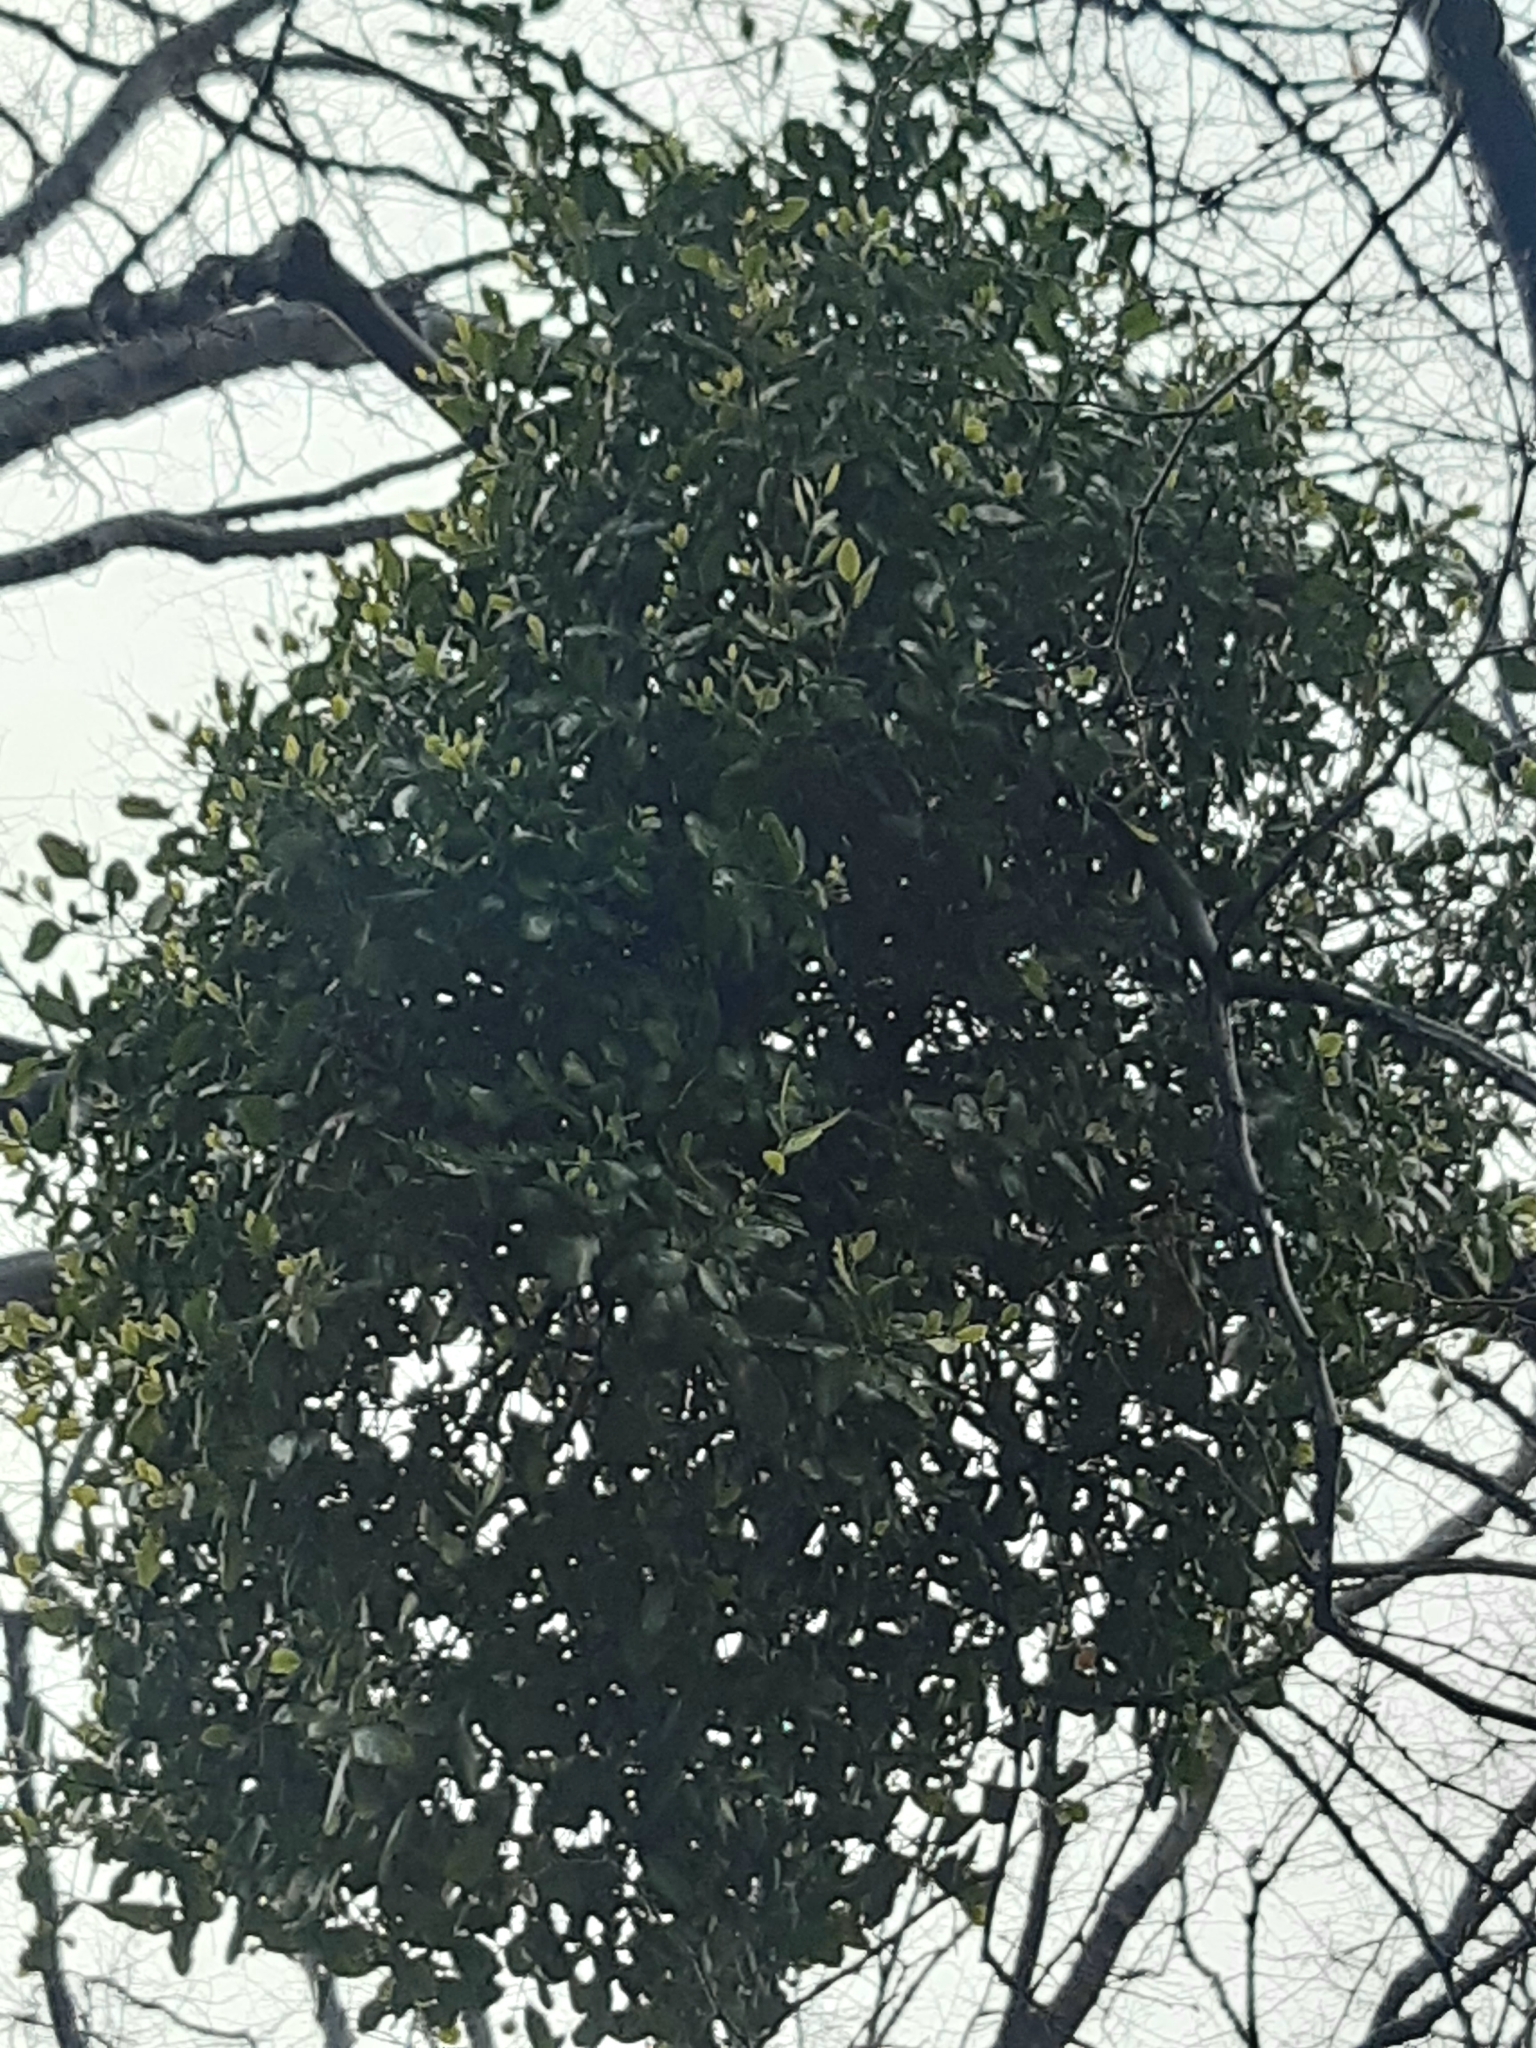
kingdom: Plantae
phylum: Tracheophyta
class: Magnoliopsida
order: Santalales
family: Loranthaceae
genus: Ileostylus
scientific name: Ileostylus micranthus
